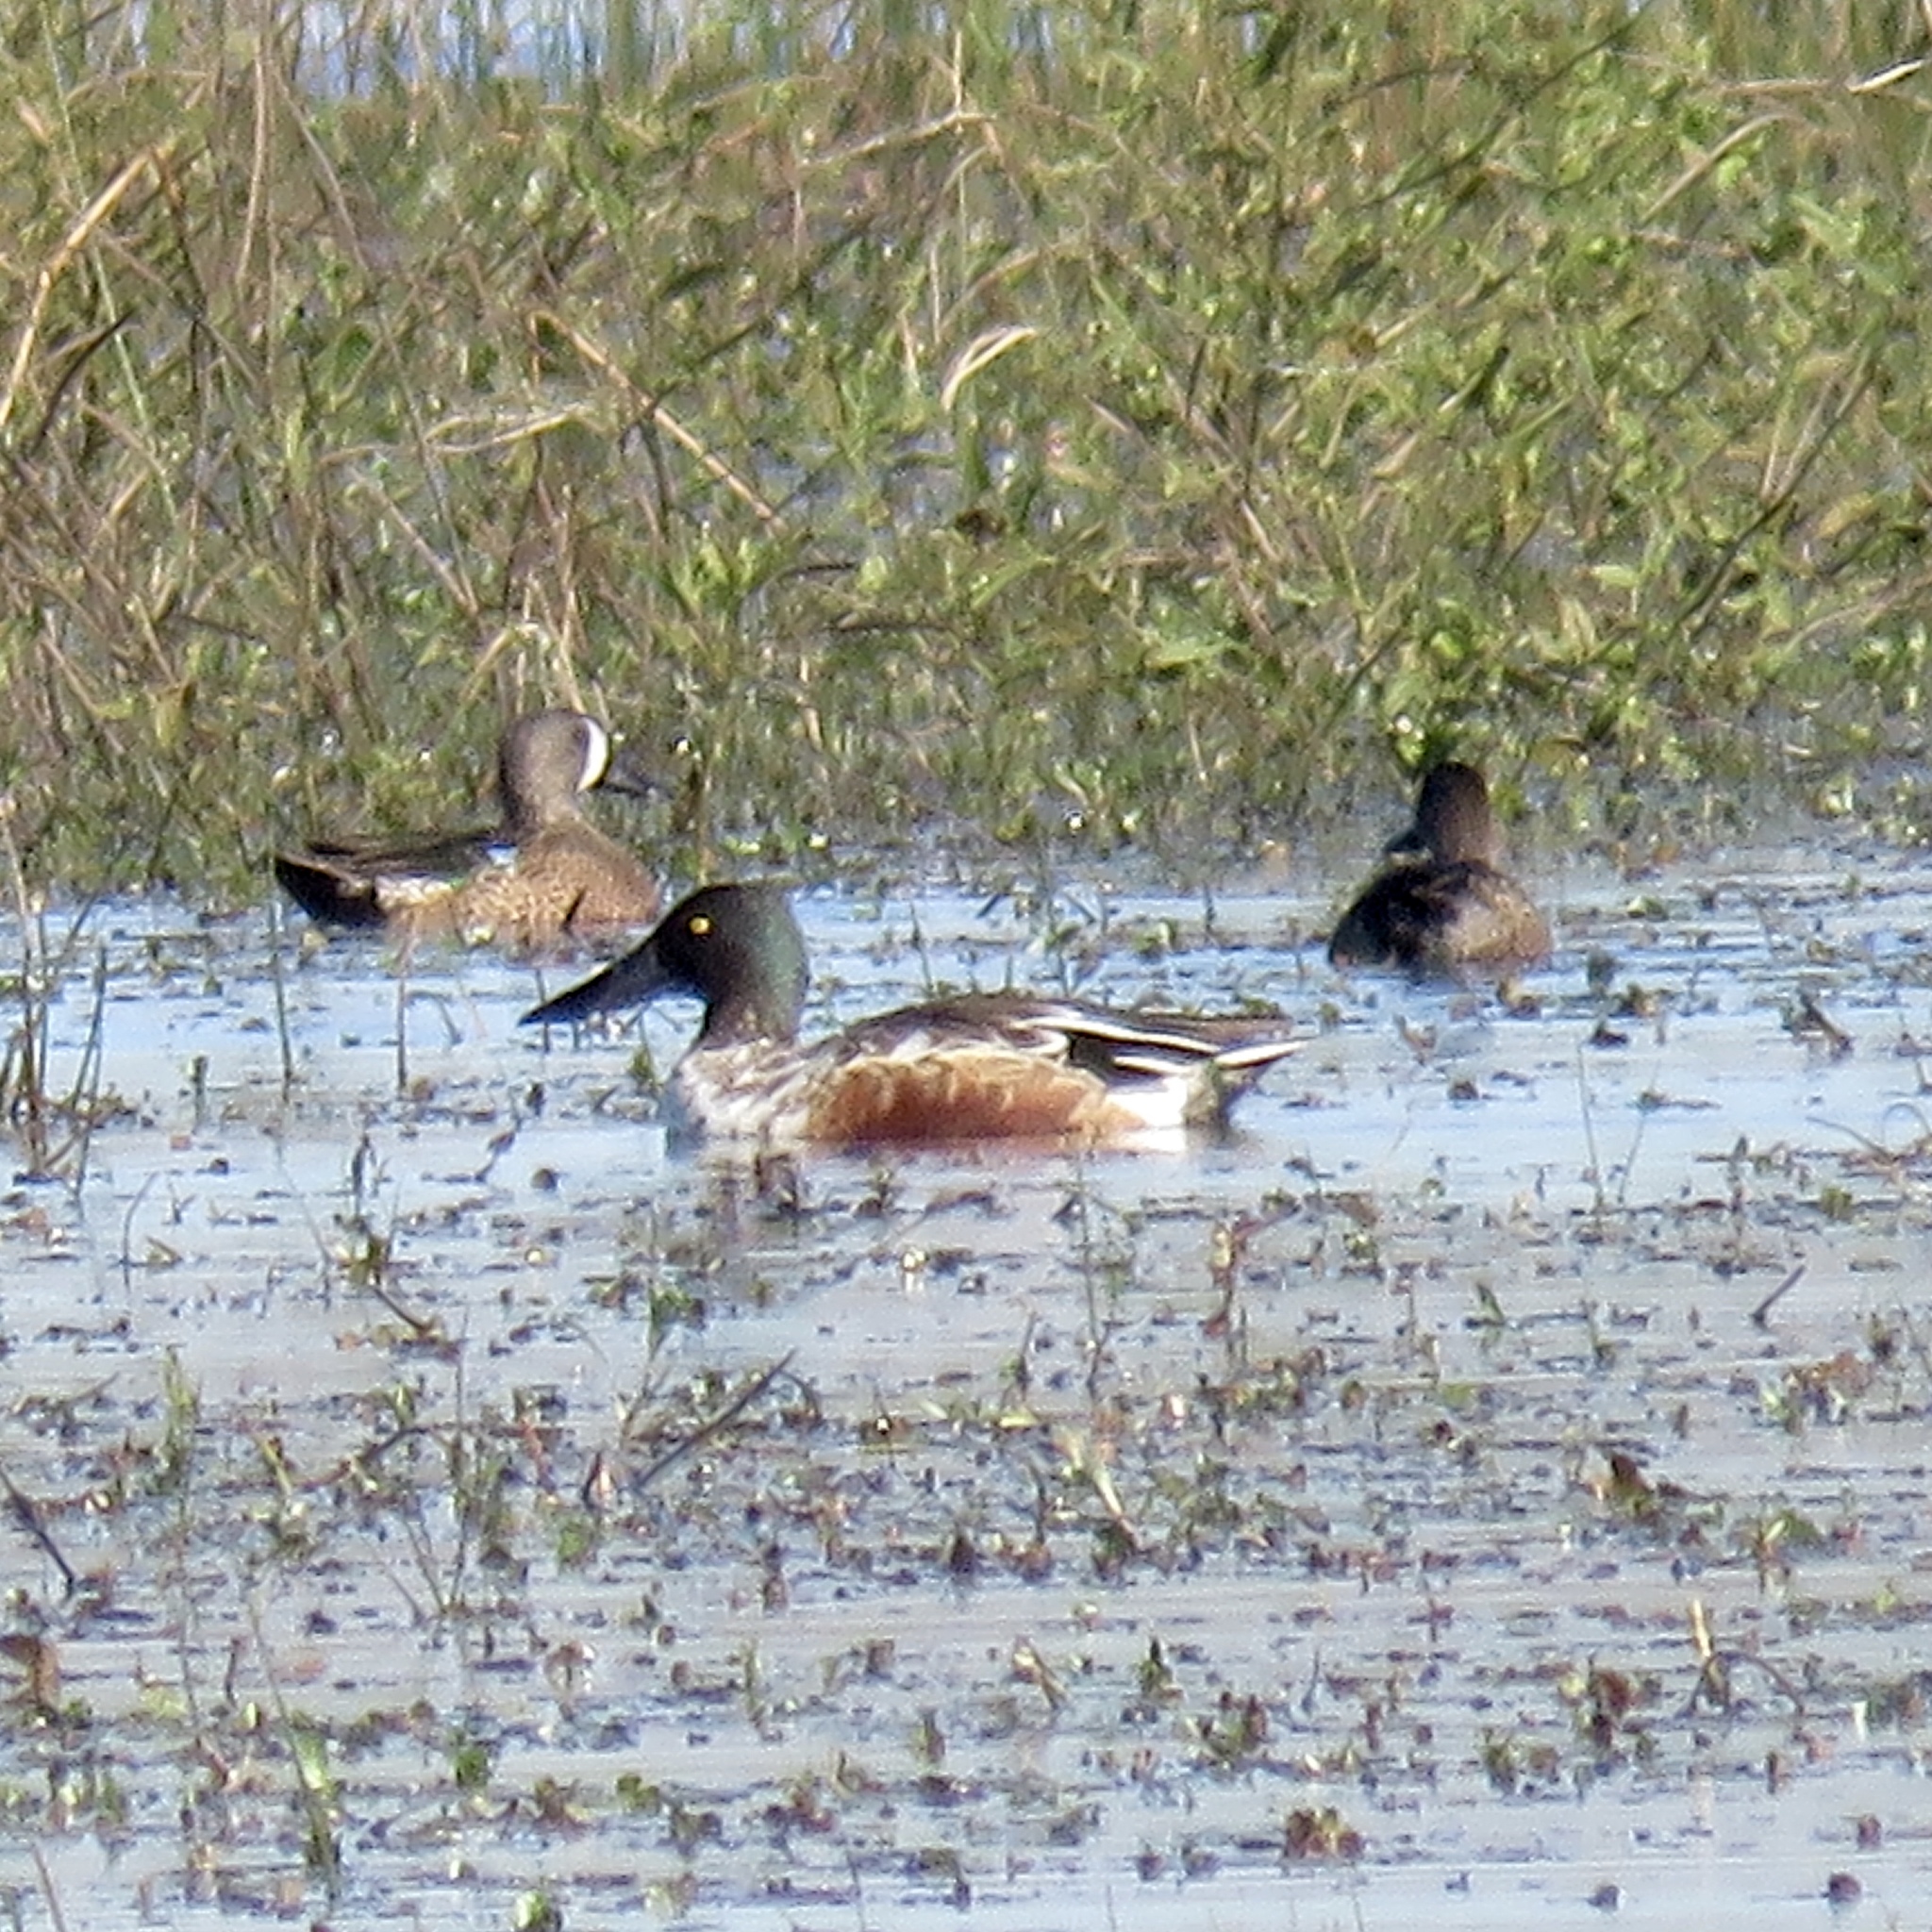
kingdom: Animalia
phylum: Chordata
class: Aves
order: Anseriformes
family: Anatidae
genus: Spatula
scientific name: Spatula clypeata
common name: Northern shoveler
